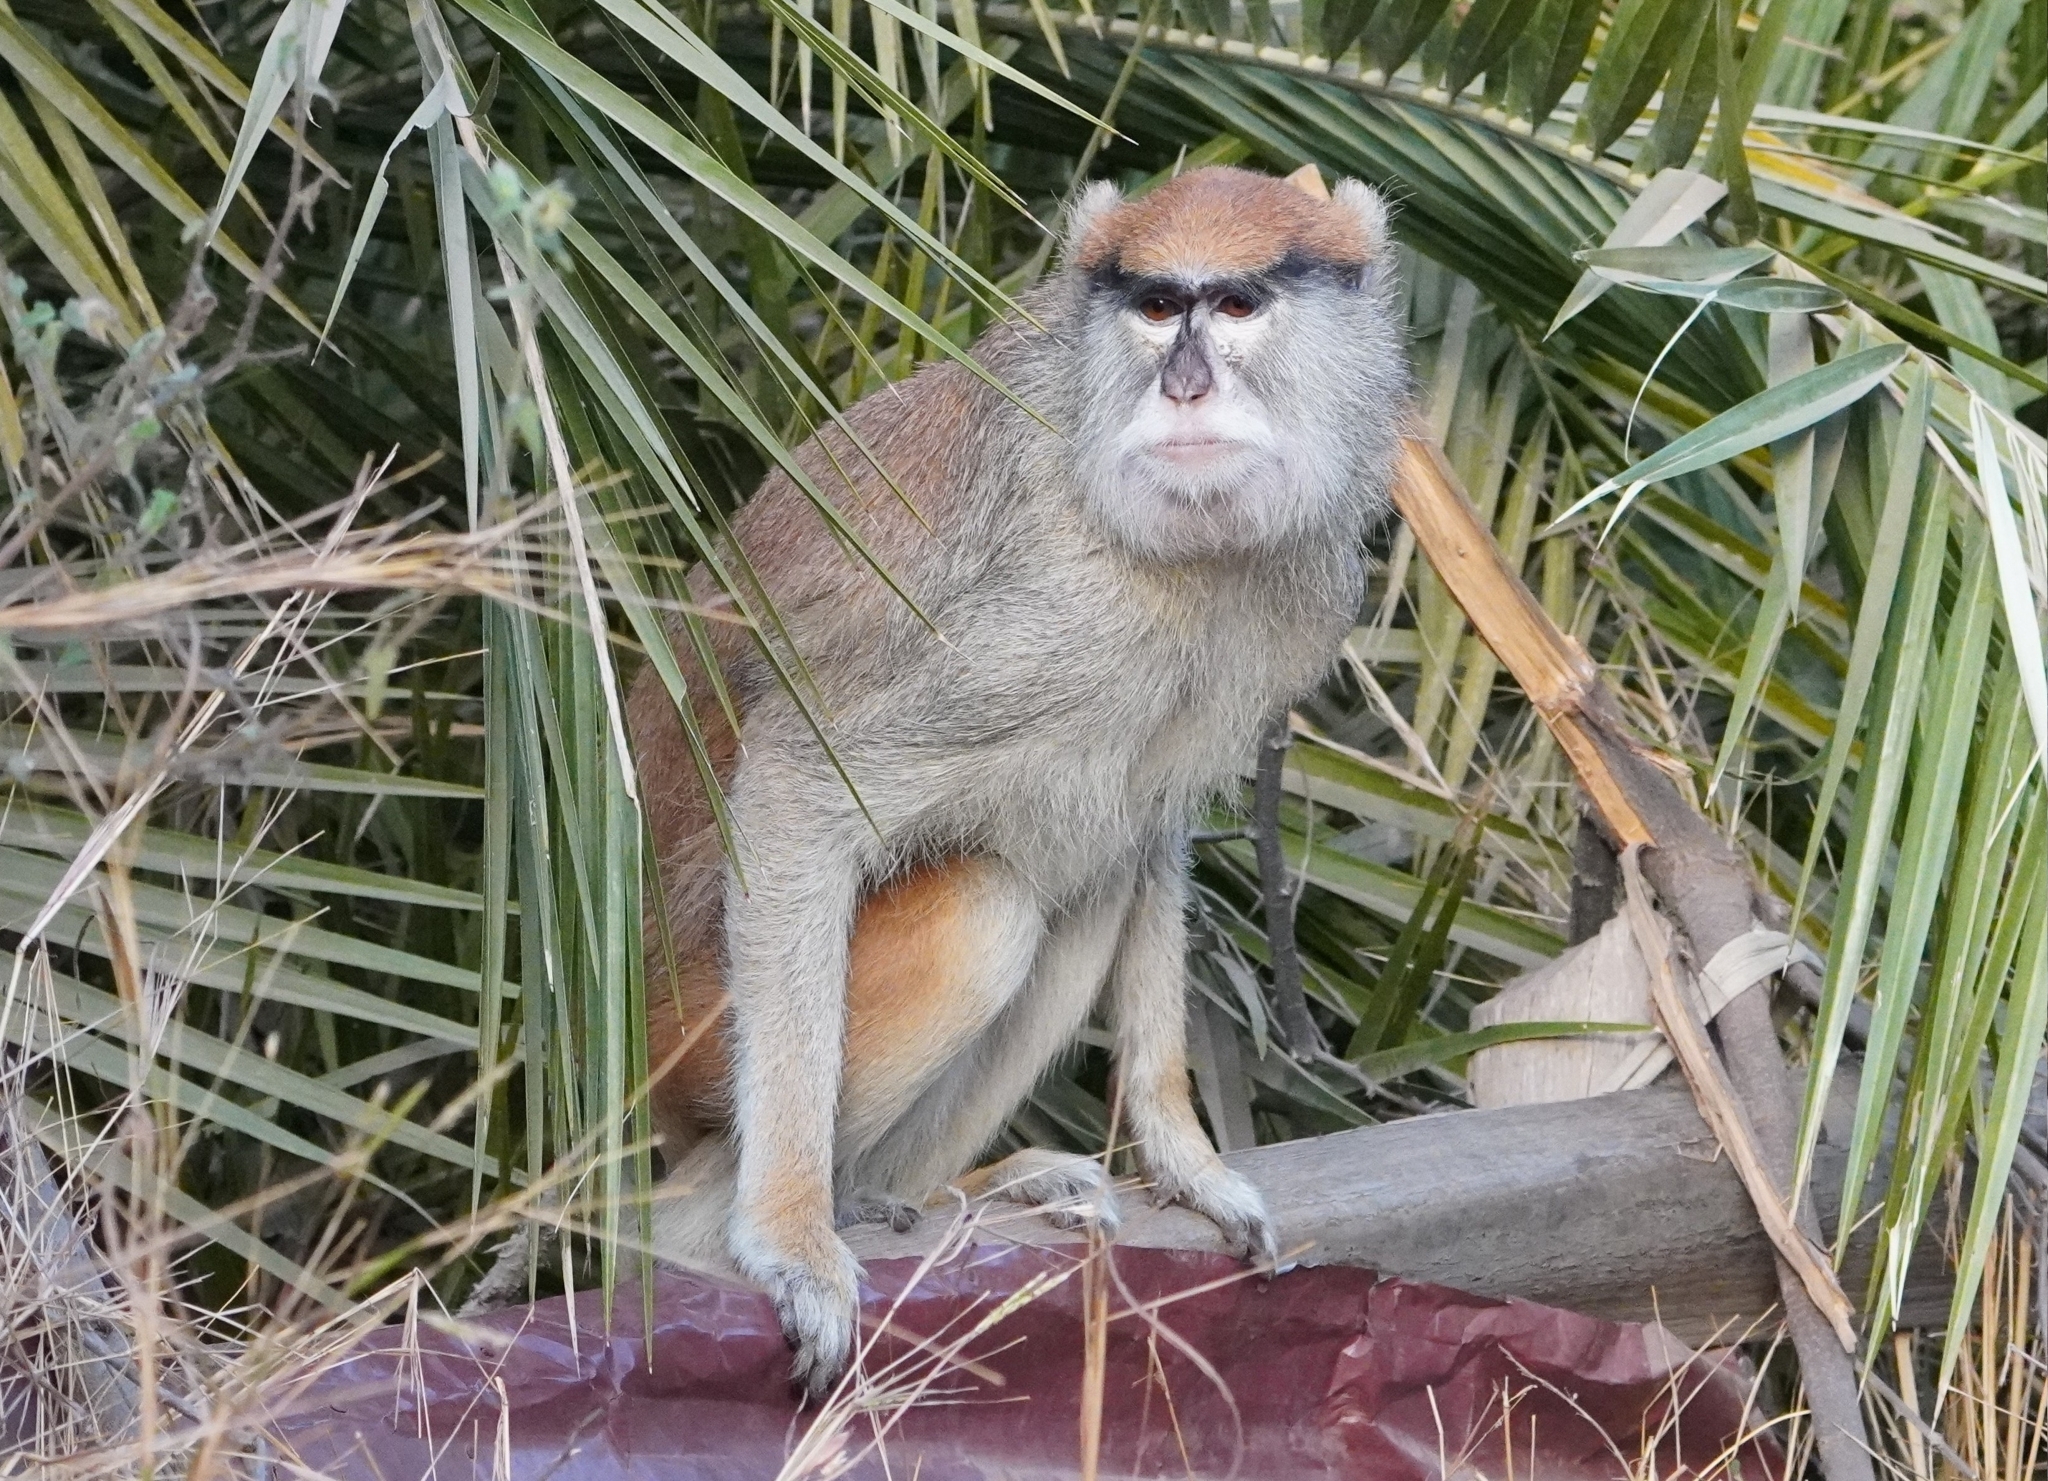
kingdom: Animalia
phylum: Chordata
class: Mammalia
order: Primates
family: Cercopithecidae
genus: Erythrocebus
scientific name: Erythrocebus patas
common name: Patas monkey
